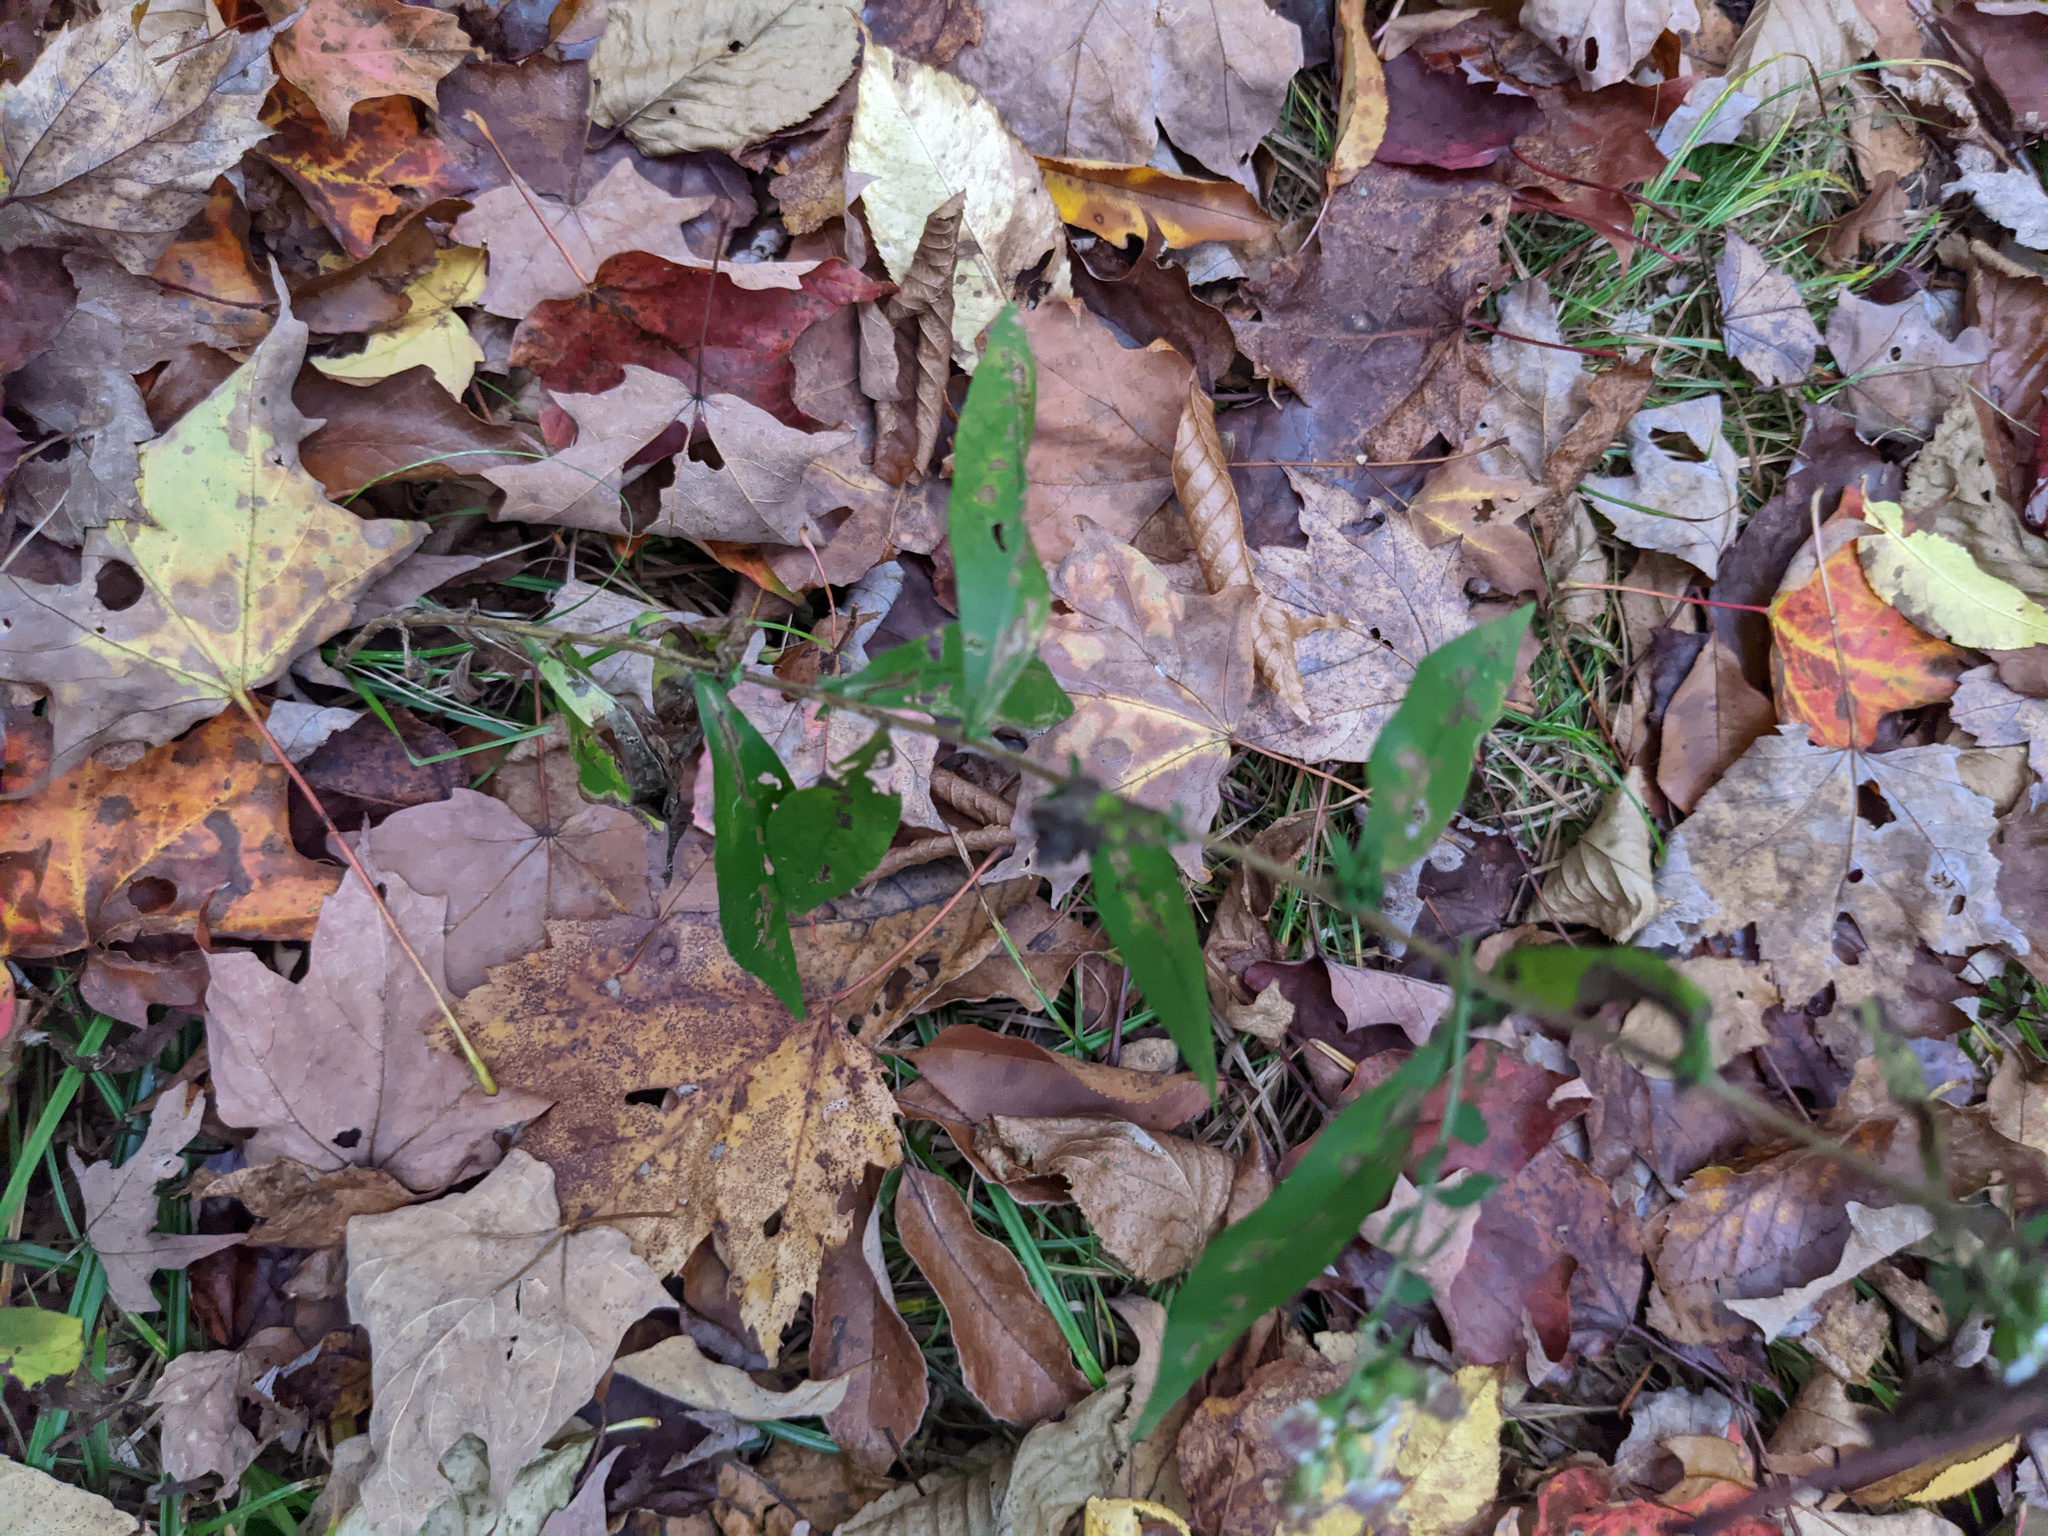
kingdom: Plantae
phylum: Tracheophyta
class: Magnoliopsida
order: Asterales
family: Asteraceae
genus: Symphyotrichum
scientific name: Symphyotrichum lateriflorum
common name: Calico aster
